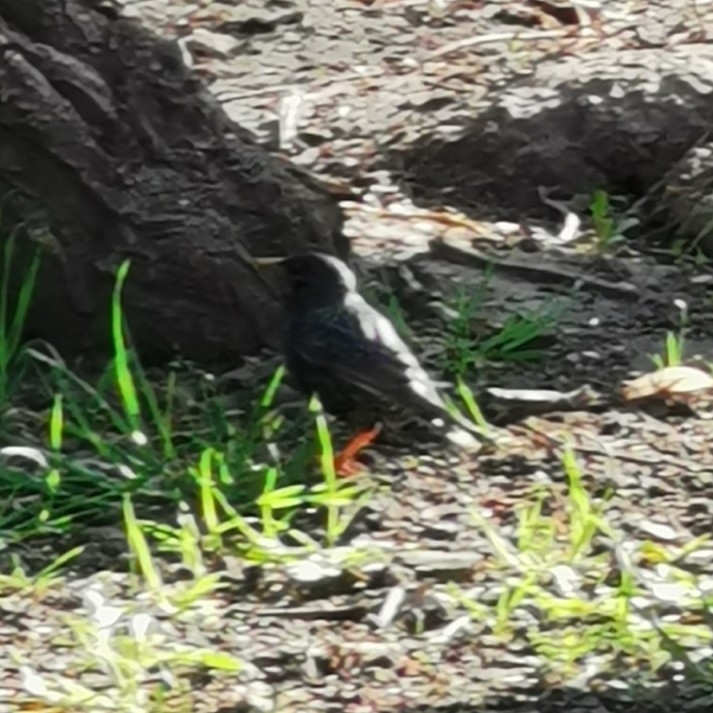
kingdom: Animalia
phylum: Chordata
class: Aves
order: Passeriformes
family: Sturnidae
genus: Sturnus
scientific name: Sturnus vulgaris
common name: Common starling
